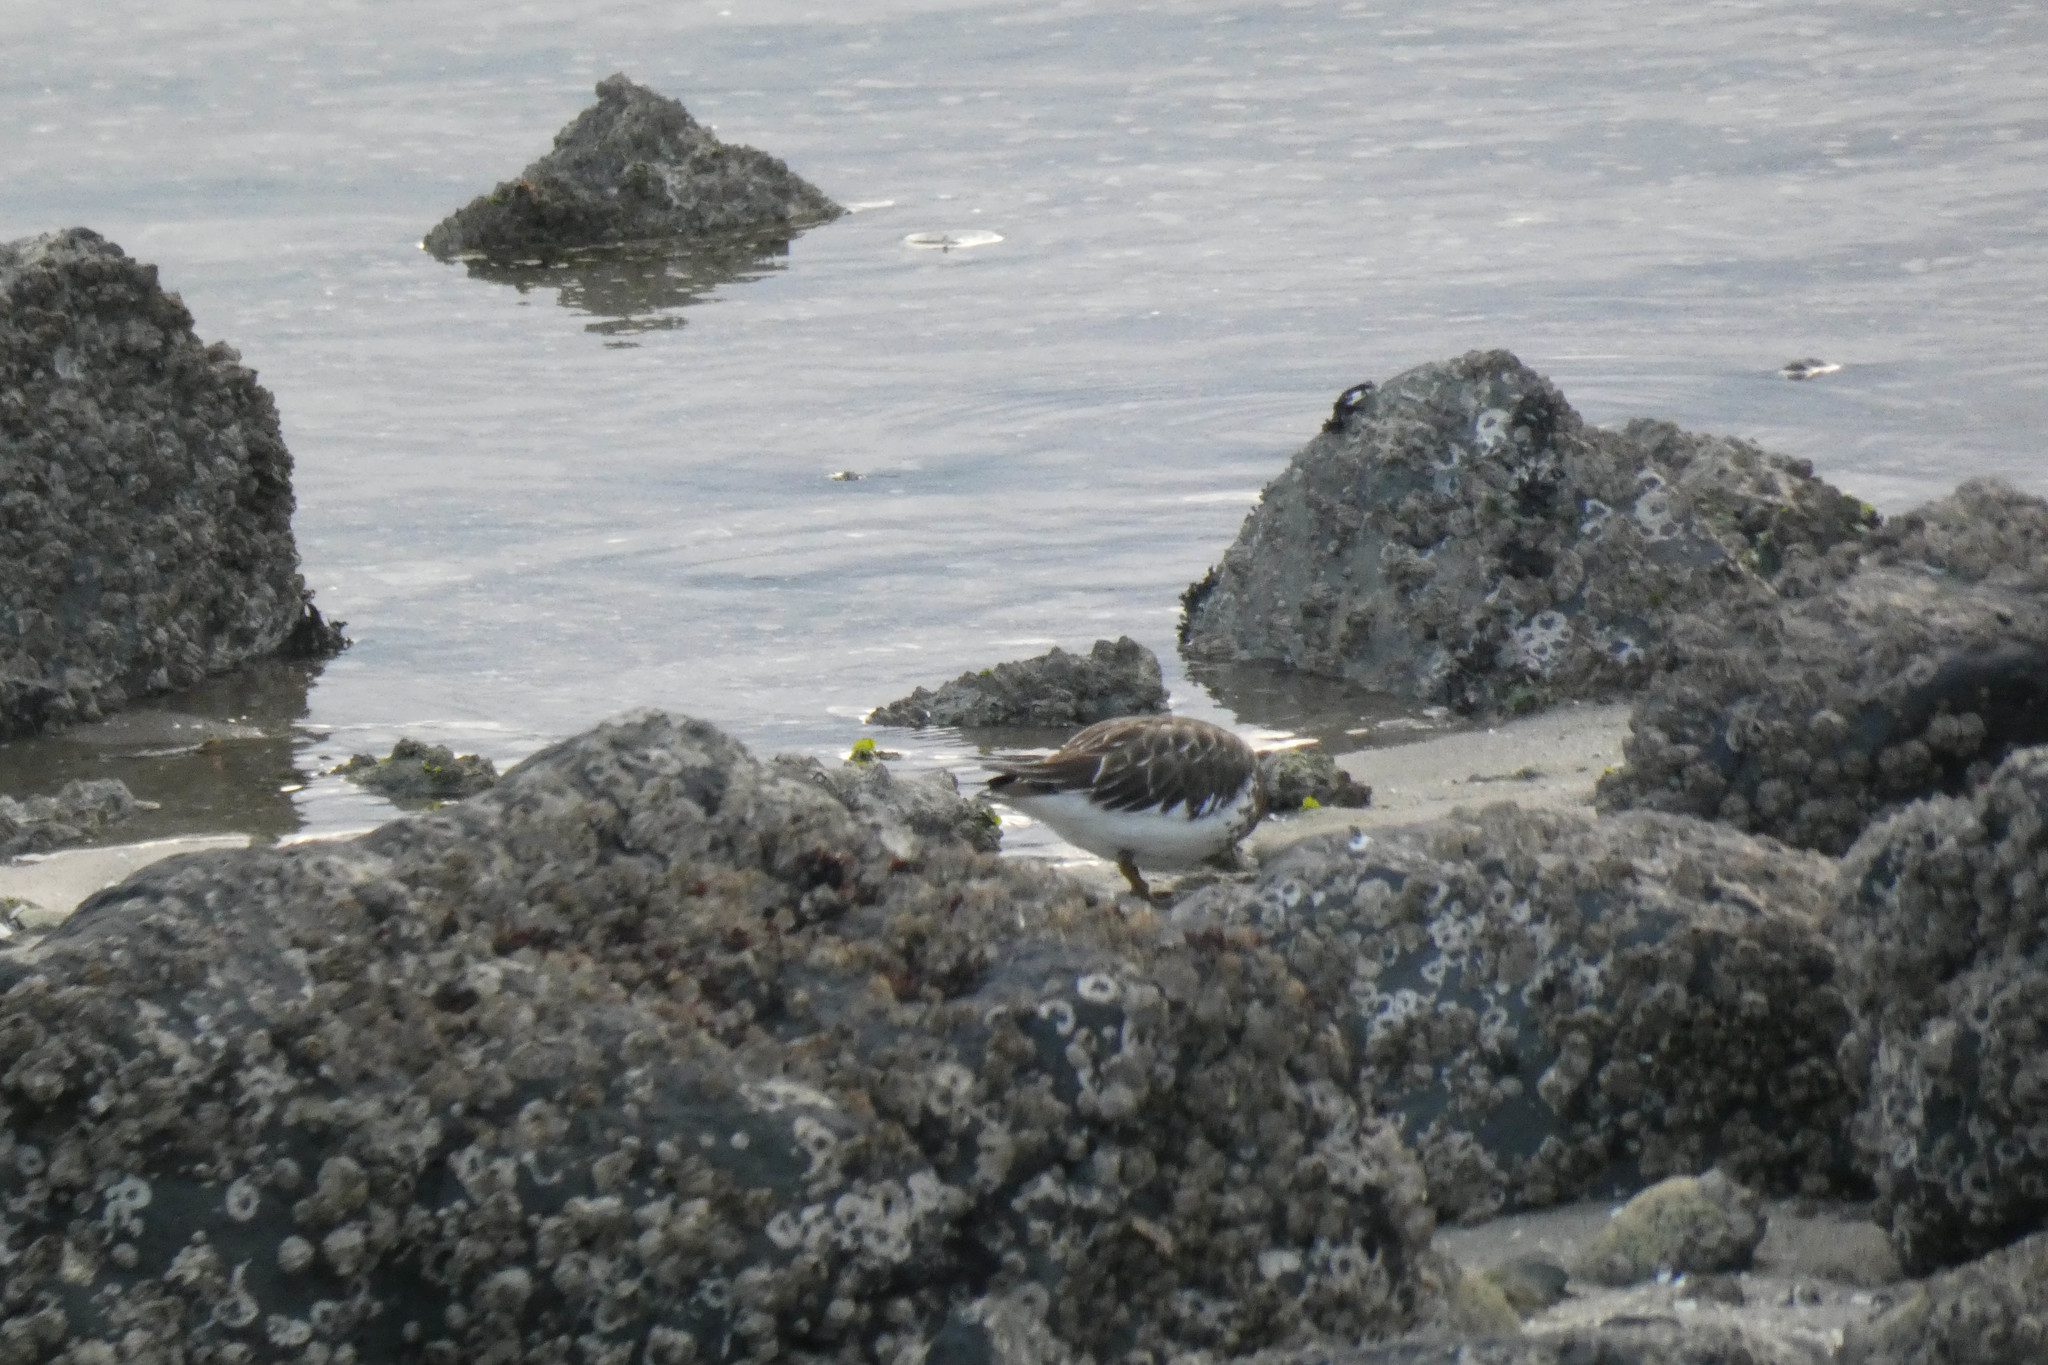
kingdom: Animalia
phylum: Chordata
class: Aves
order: Charadriiformes
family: Scolopacidae
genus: Arenaria
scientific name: Arenaria melanocephala
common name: Black turnstone
